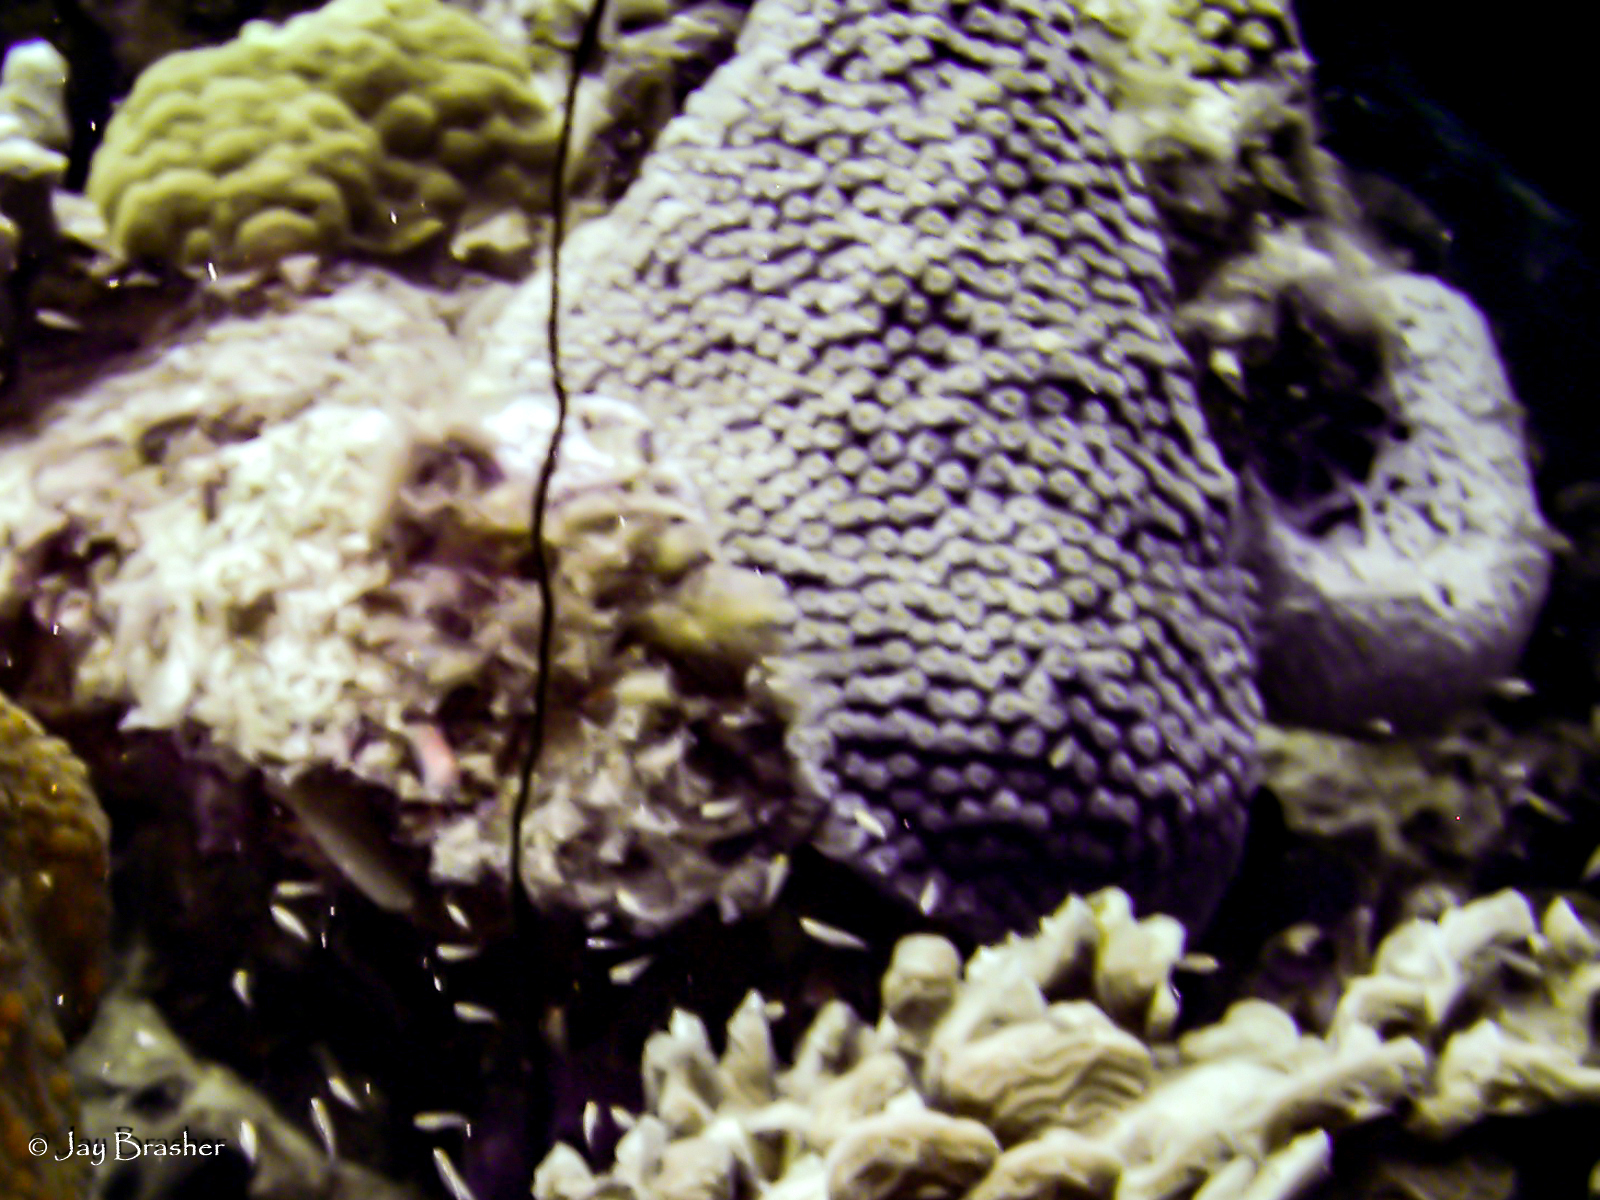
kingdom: Animalia
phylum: Cnidaria
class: Anthozoa
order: Scleractinia
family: Montastraeidae
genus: Montastraea
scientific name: Montastraea cavernosa
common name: Great star coral
